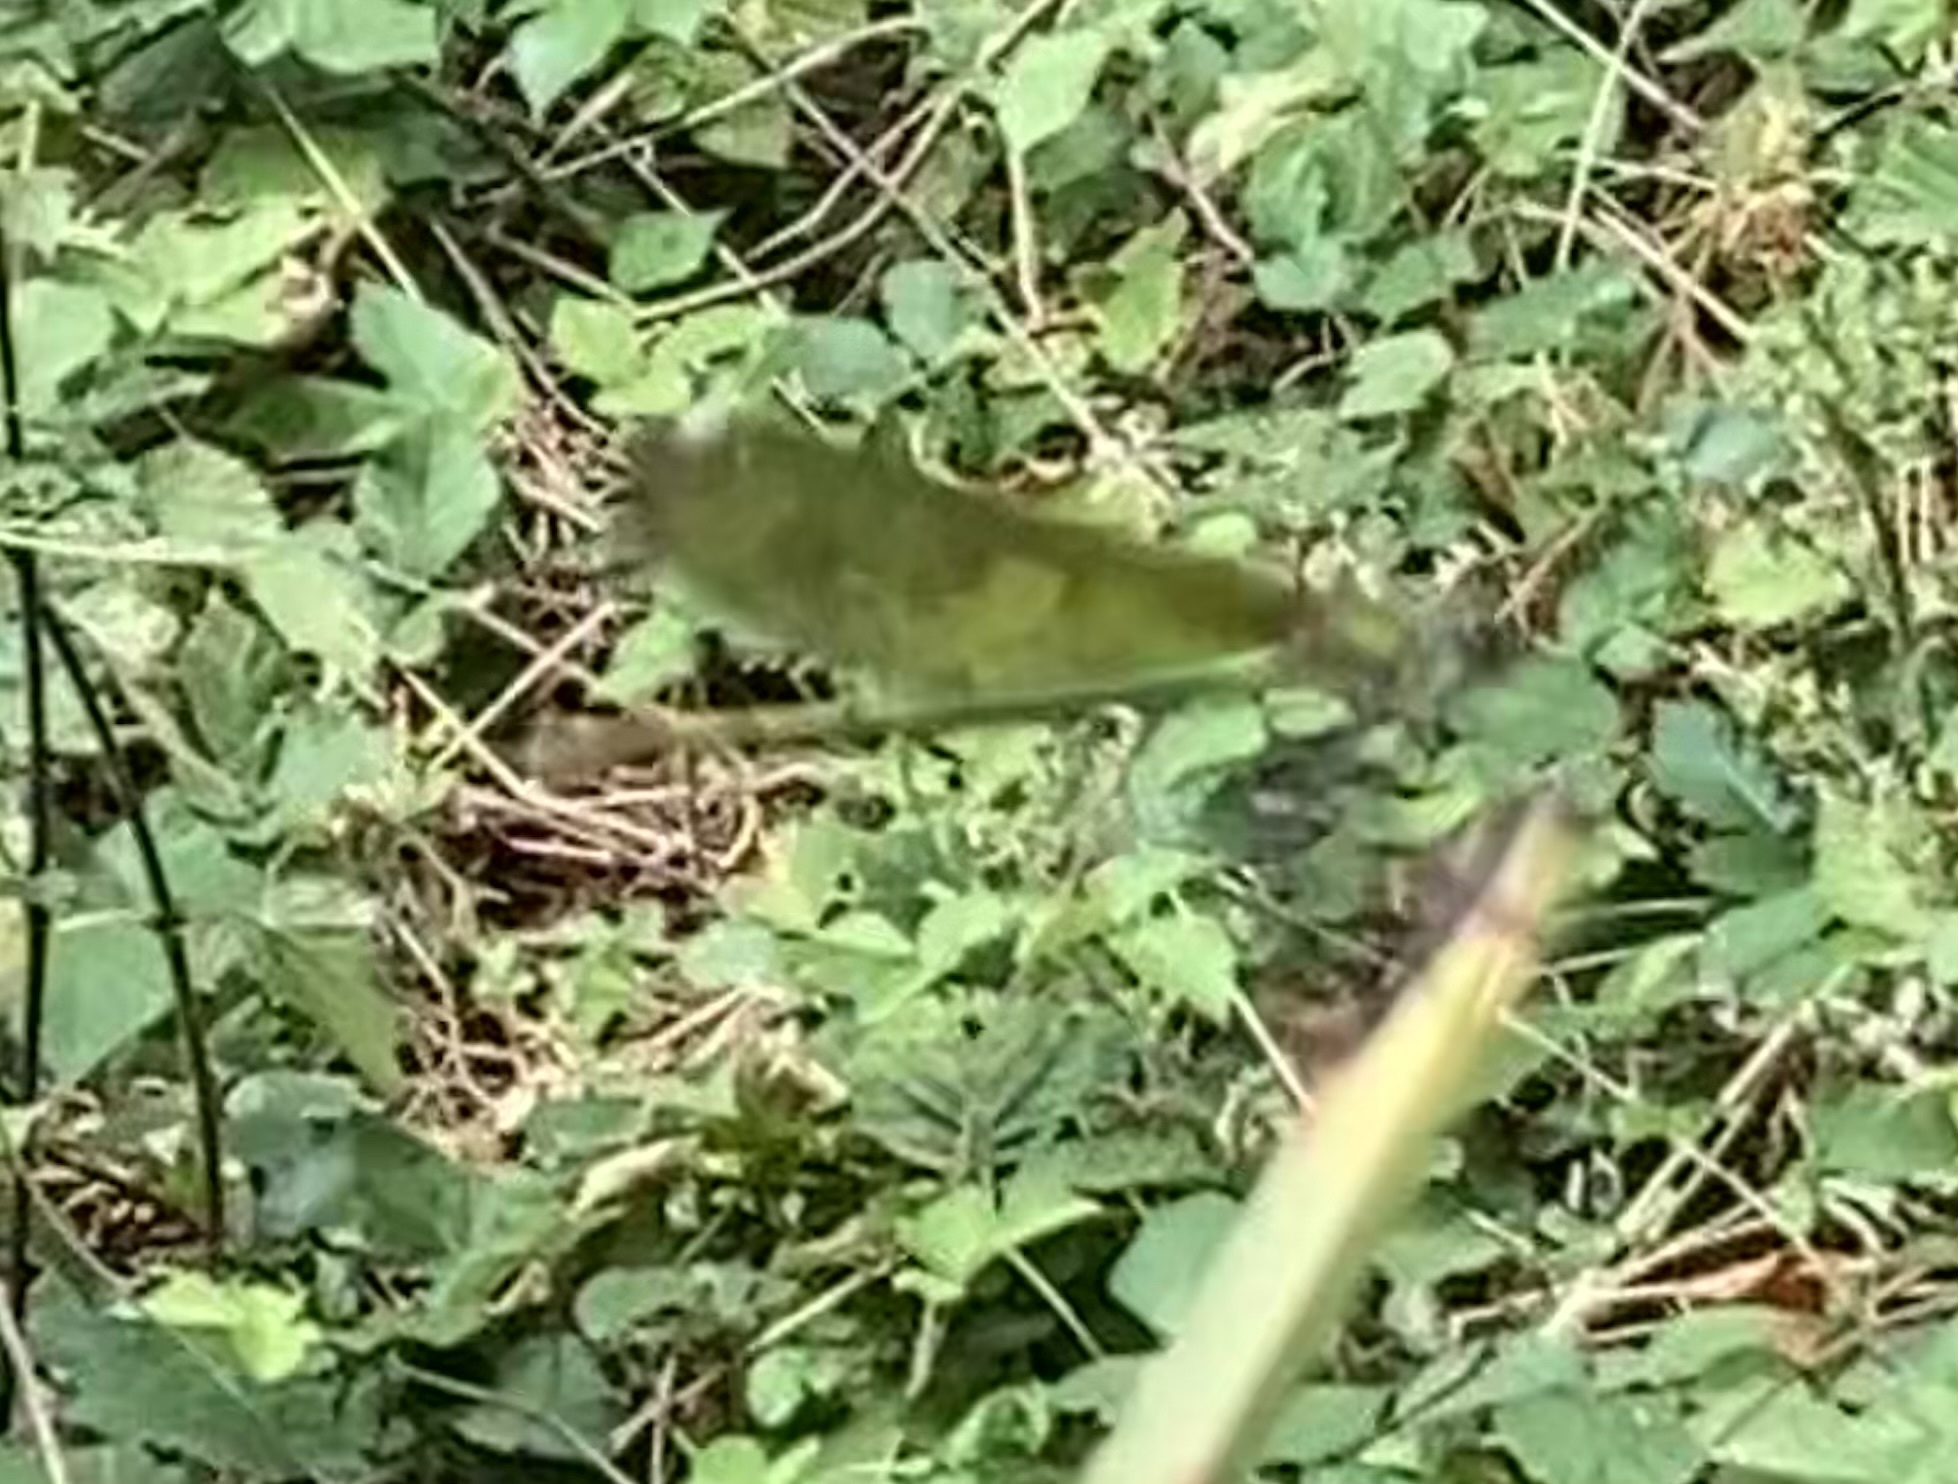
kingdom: Animalia
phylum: Arthropoda
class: Insecta
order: Odonata
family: Calopterygidae
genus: Calopteryx
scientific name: Calopteryx splendens
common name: Banded demoiselle
